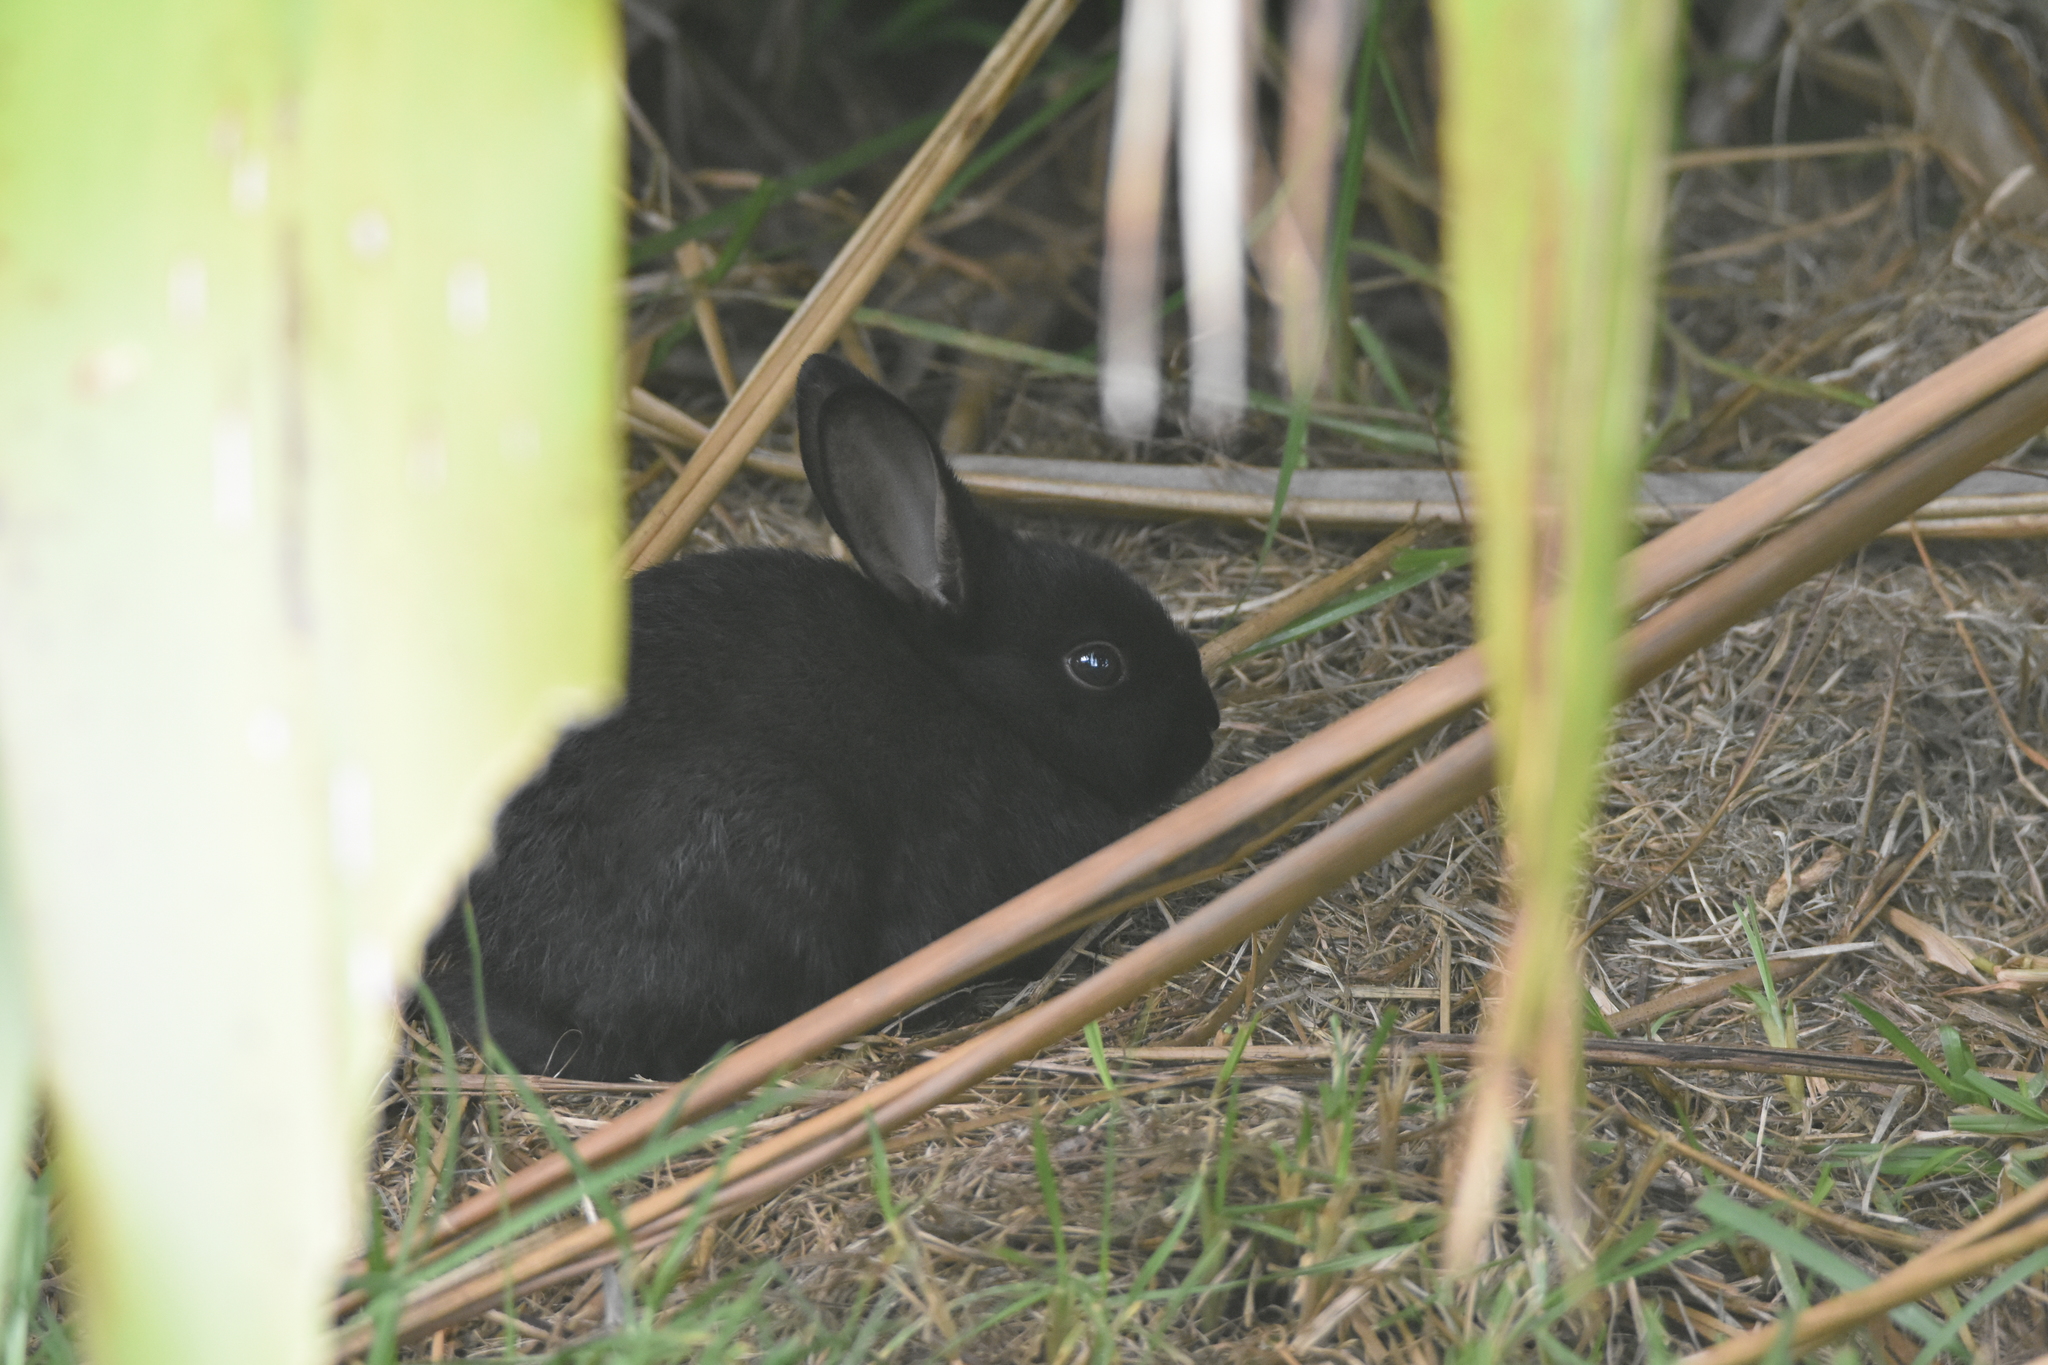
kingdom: Animalia
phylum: Chordata
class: Mammalia
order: Lagomorpha
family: Leporidae
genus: Oryctolagus
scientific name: Oryctolagus cuniculus
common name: European rabbit
